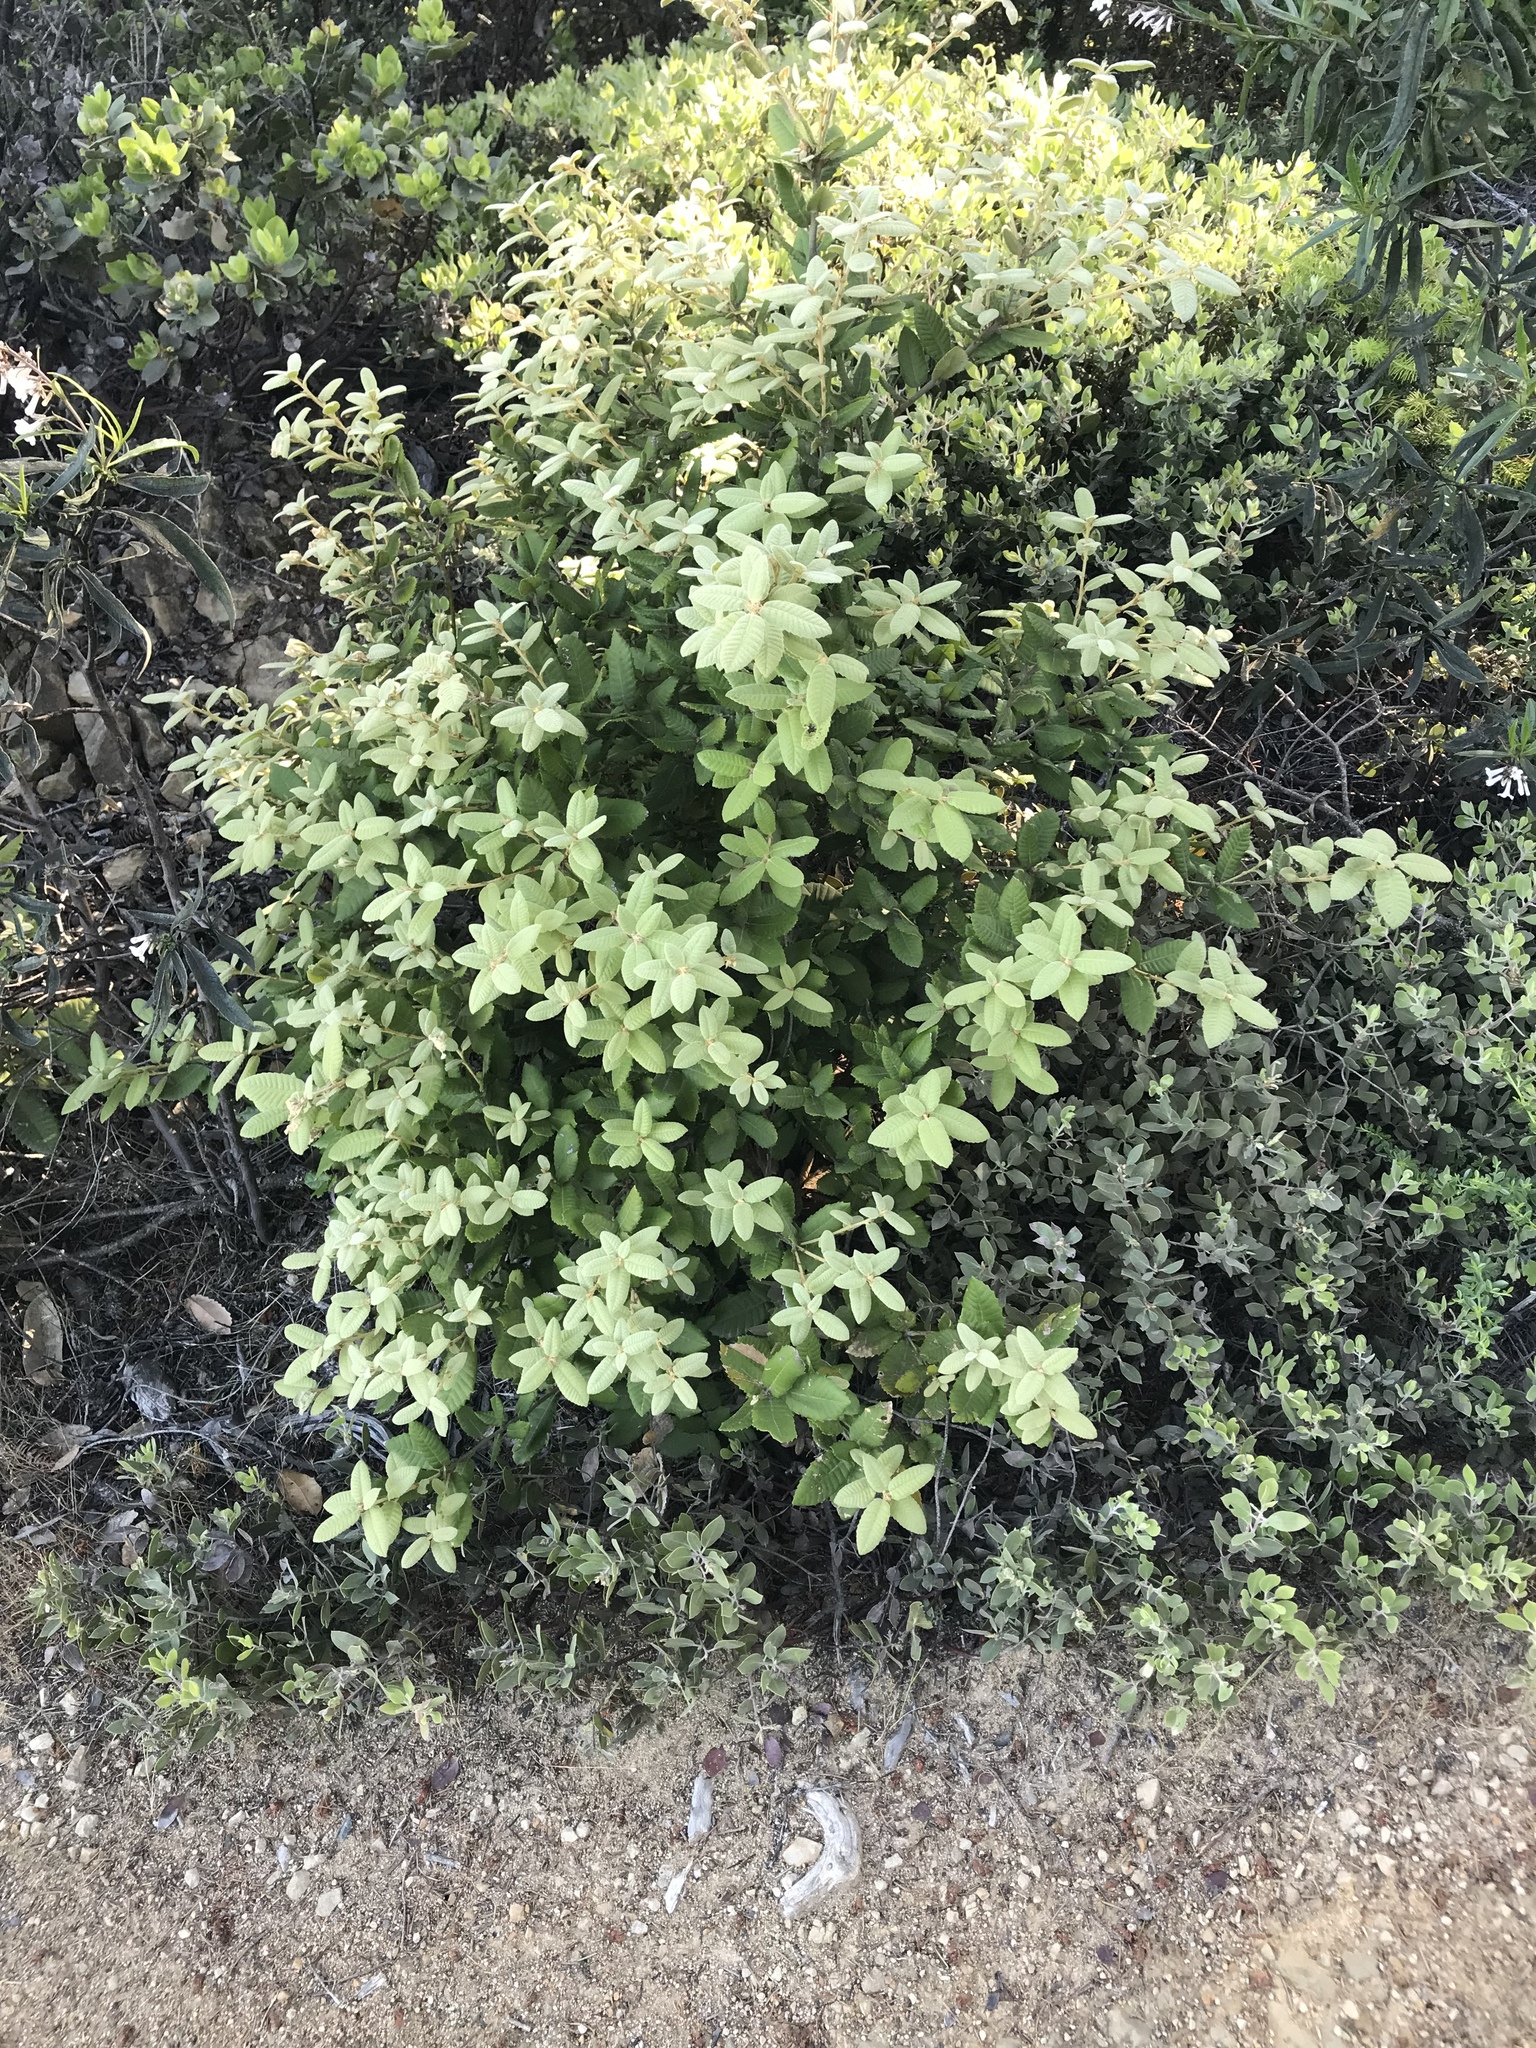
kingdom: Plantae
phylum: Tracheophyta
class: Magnoliopsida
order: Fagales
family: Fagaceae
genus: Notholithocarpus
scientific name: Notholithocarpus densiflorus
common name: Tan bark oak
